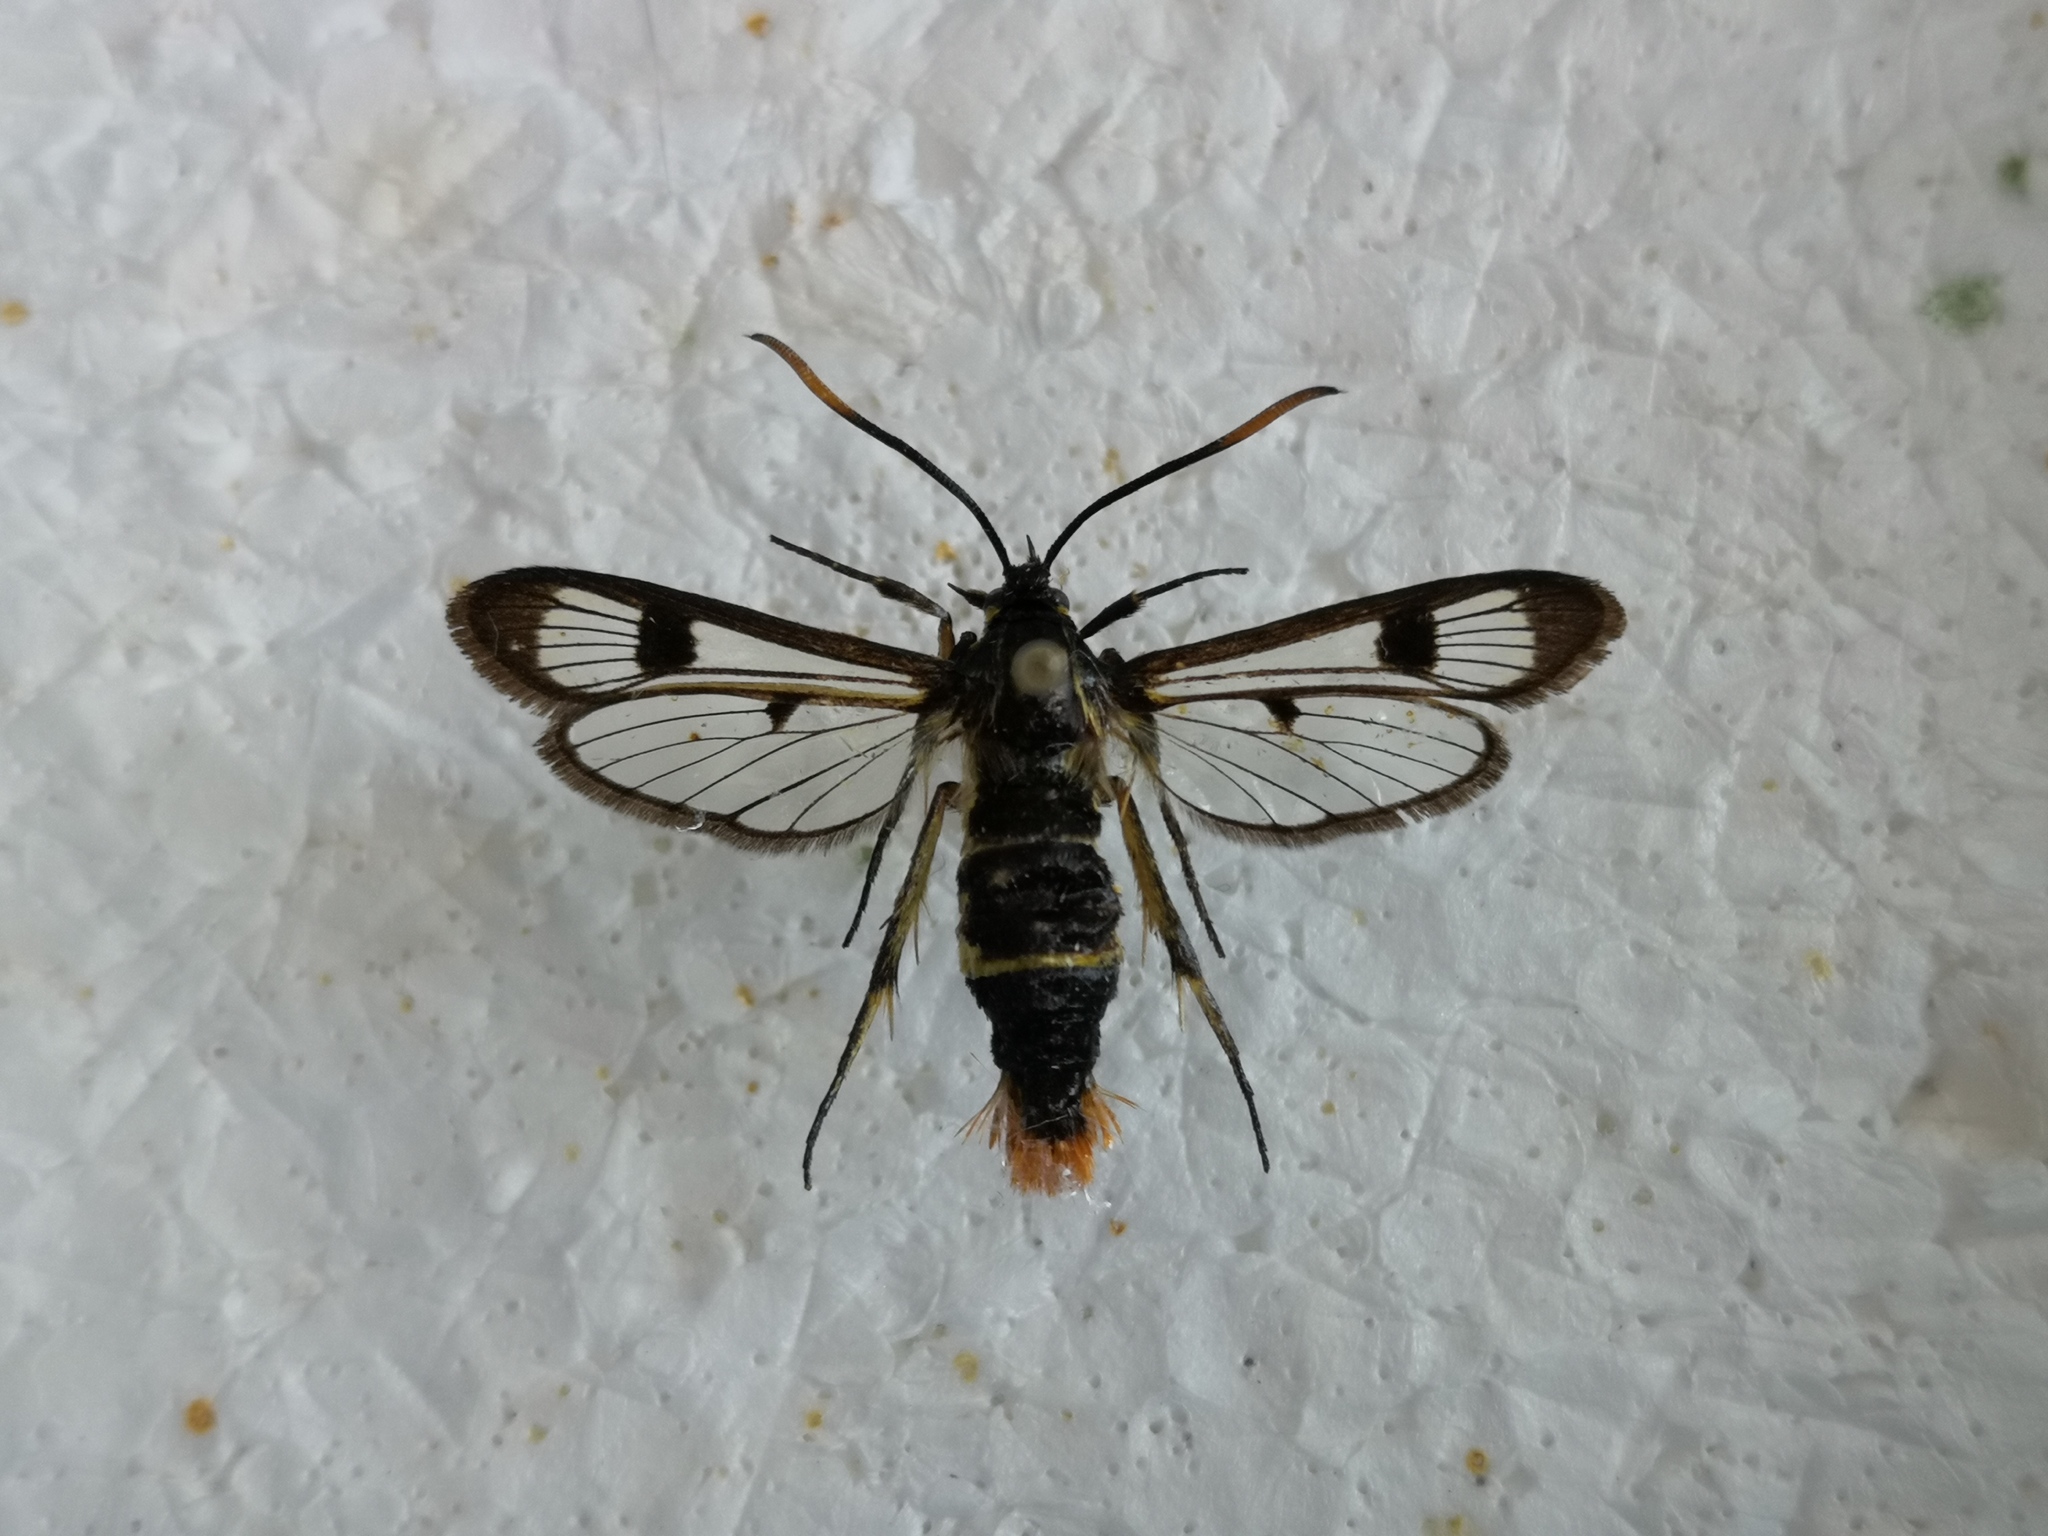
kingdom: Animalia
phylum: Arthropoda
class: Insecta
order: Lepidoptera
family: Sesiidae
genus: Synanthedon
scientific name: Synanthedon scoliaeformis
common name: Welsh clearwing
